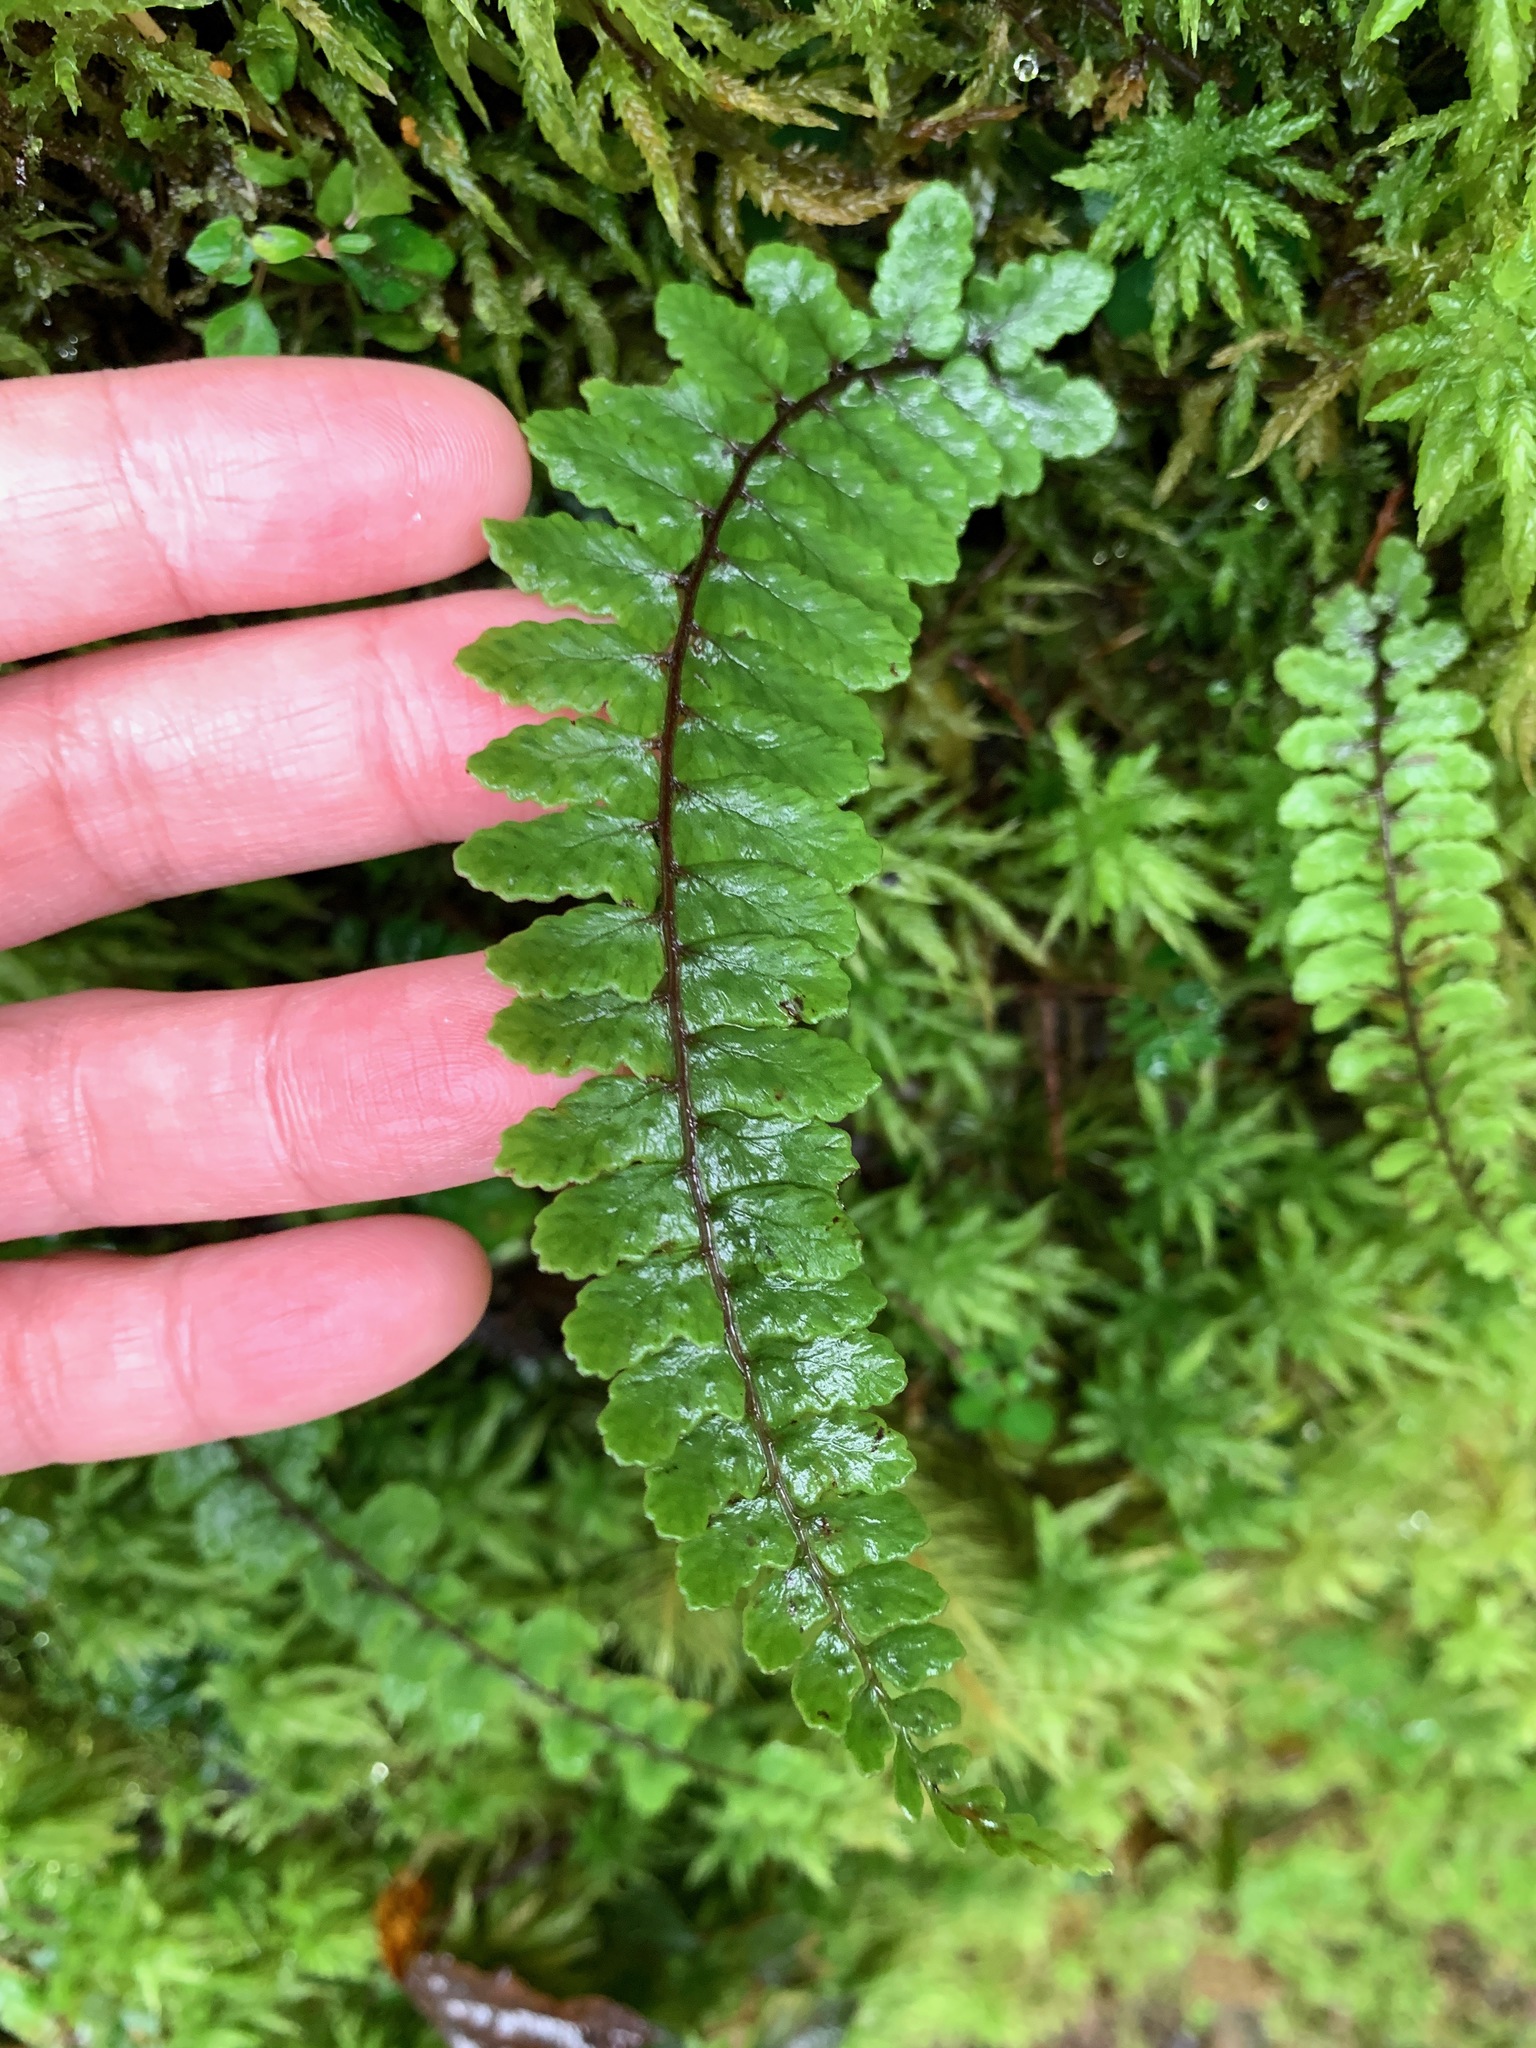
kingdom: Plantae
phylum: Tracheophyta
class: Polypodiopsida
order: Polypodiales
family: Athyriaceae
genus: Athyrium
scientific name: Athyrium nakanoi
